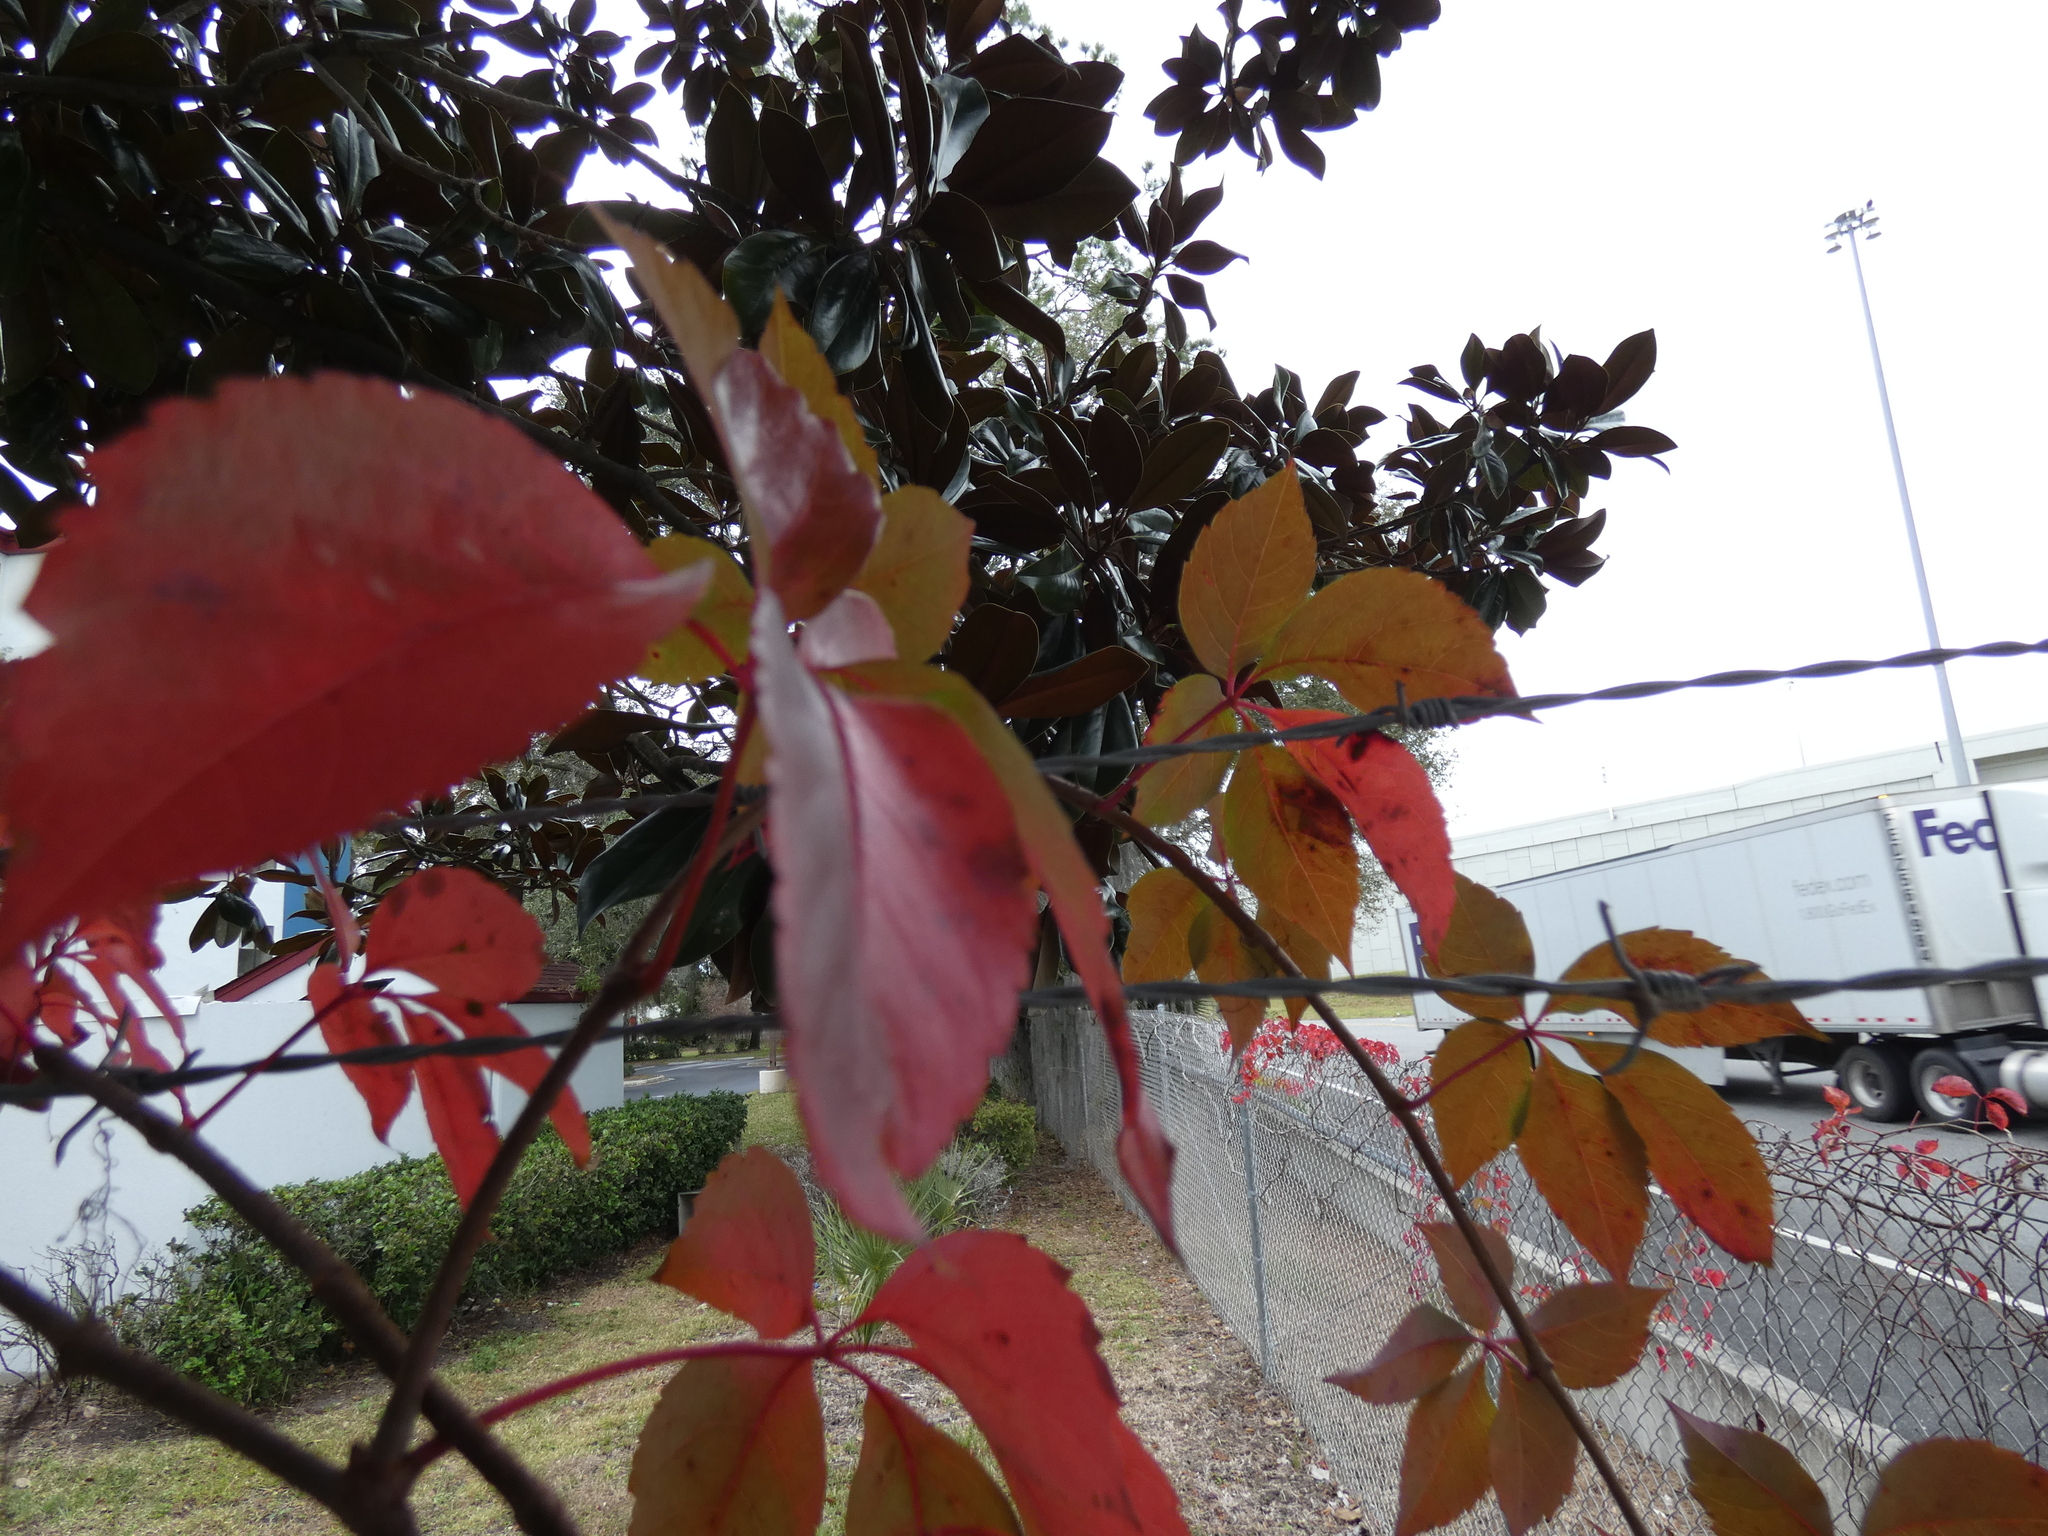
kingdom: Plantae
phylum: Tracheophyta
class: Magnoliopsida
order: Vitales
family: Vitaceae
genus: Parthenocissus
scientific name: Parthenocissus quinquefolia
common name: Virginia-creeper
